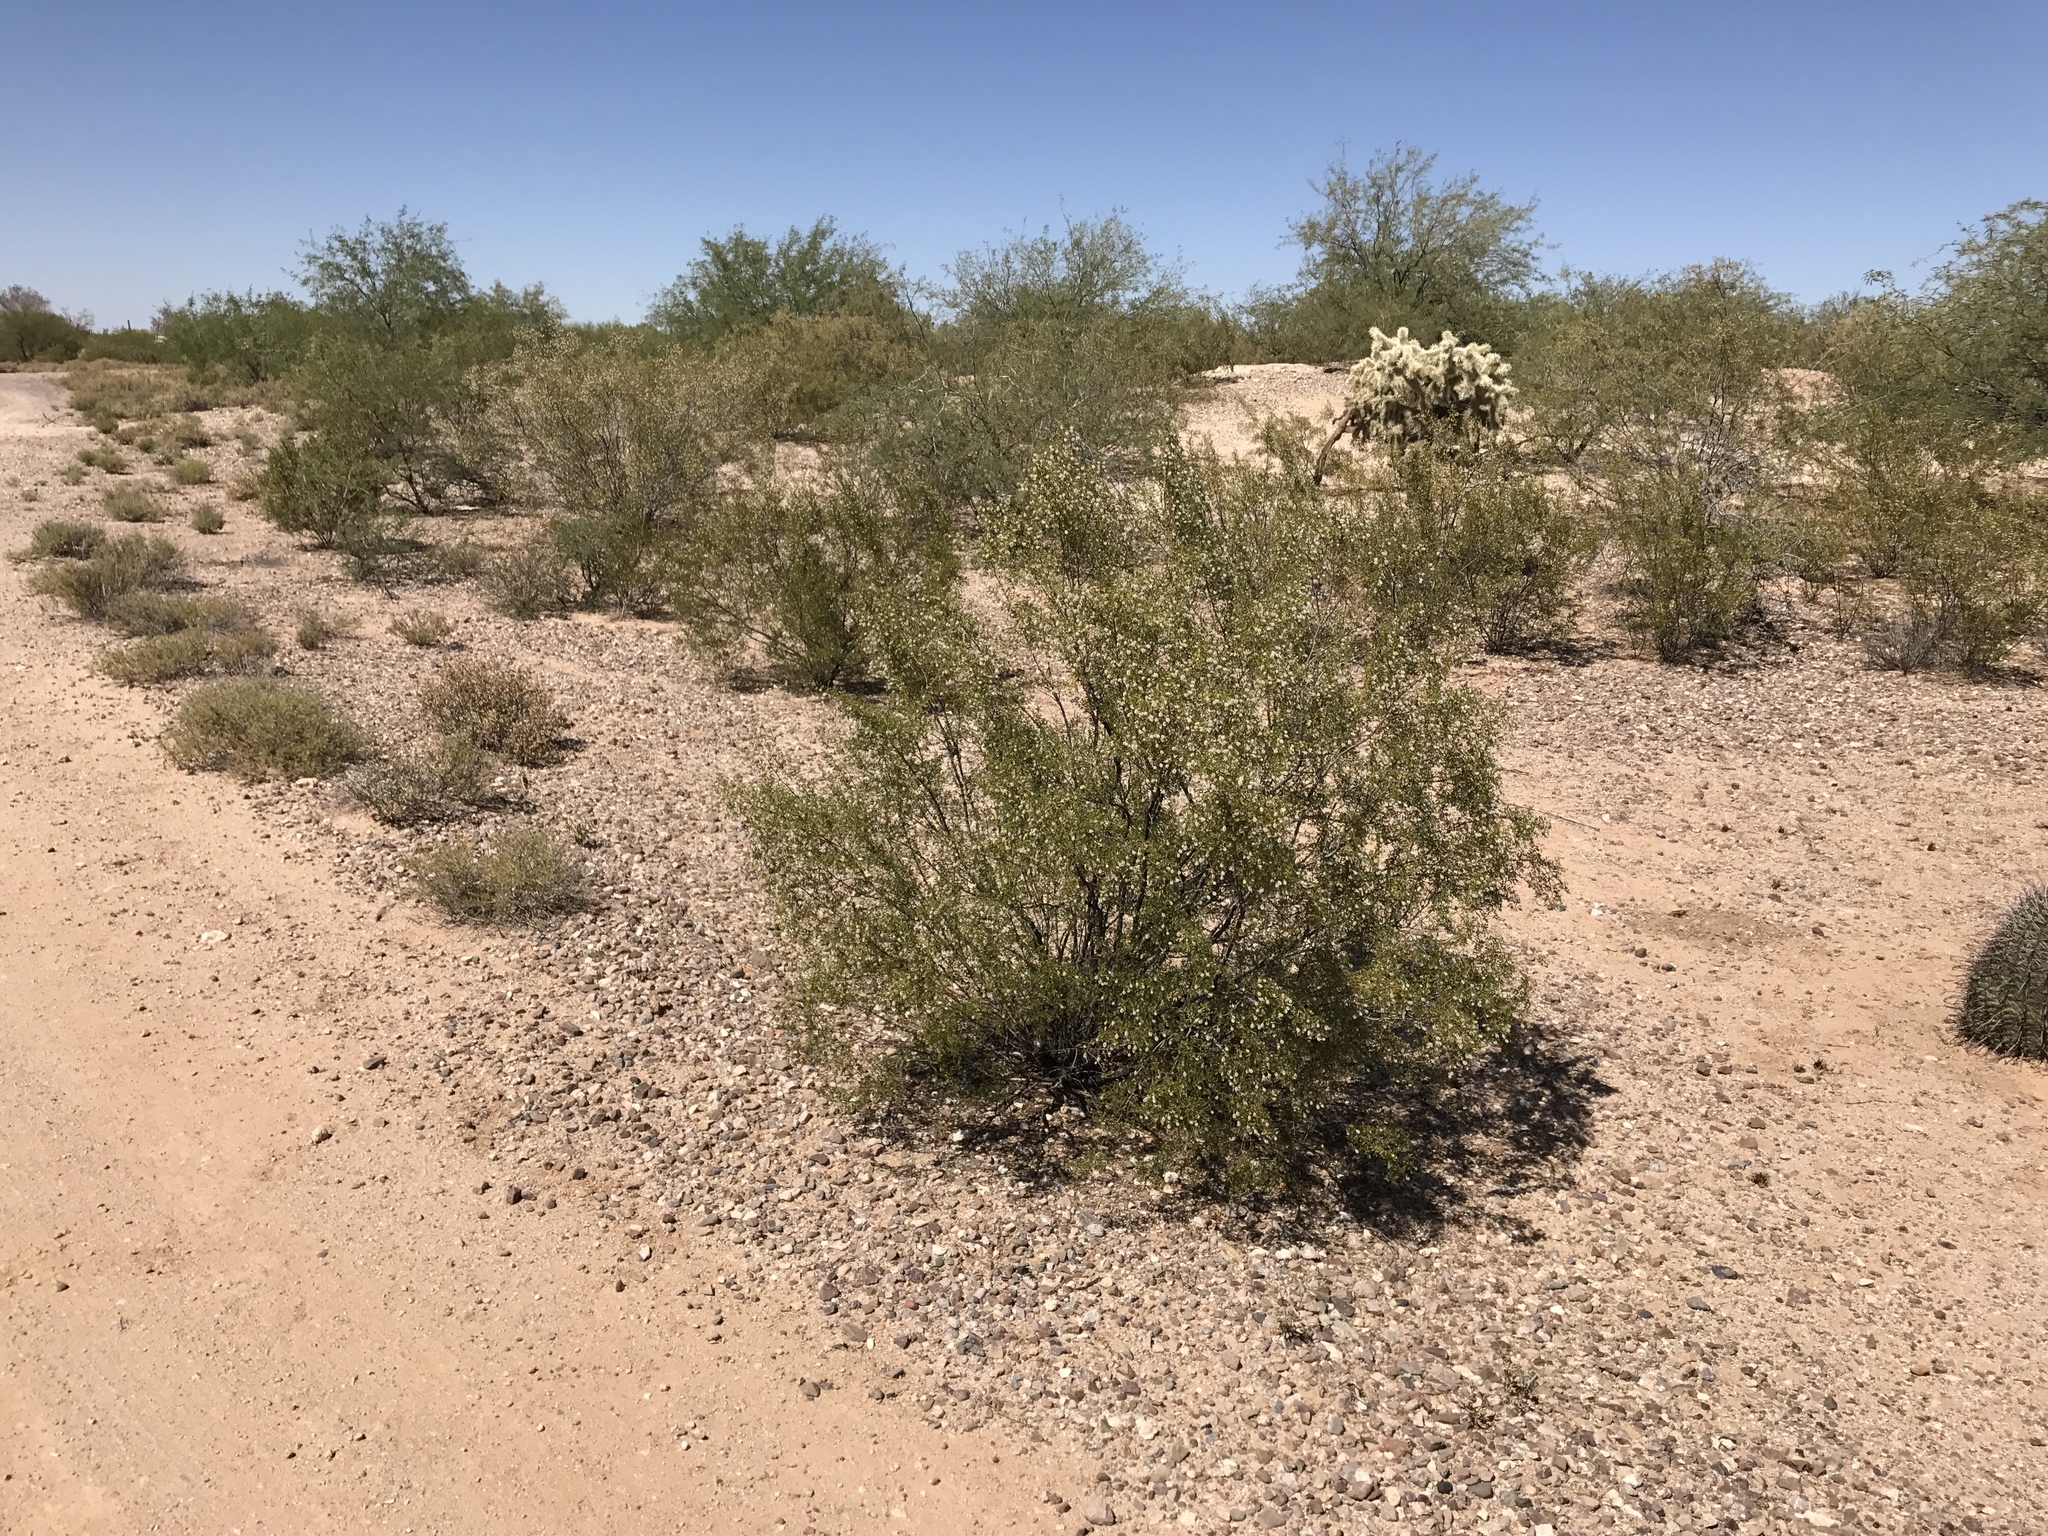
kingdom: Plantae
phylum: Tracheophyta
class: Magnoliopsida
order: Zygophyllales
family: Zygophyllaceae
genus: Larrea
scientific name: Larrea tridentata
